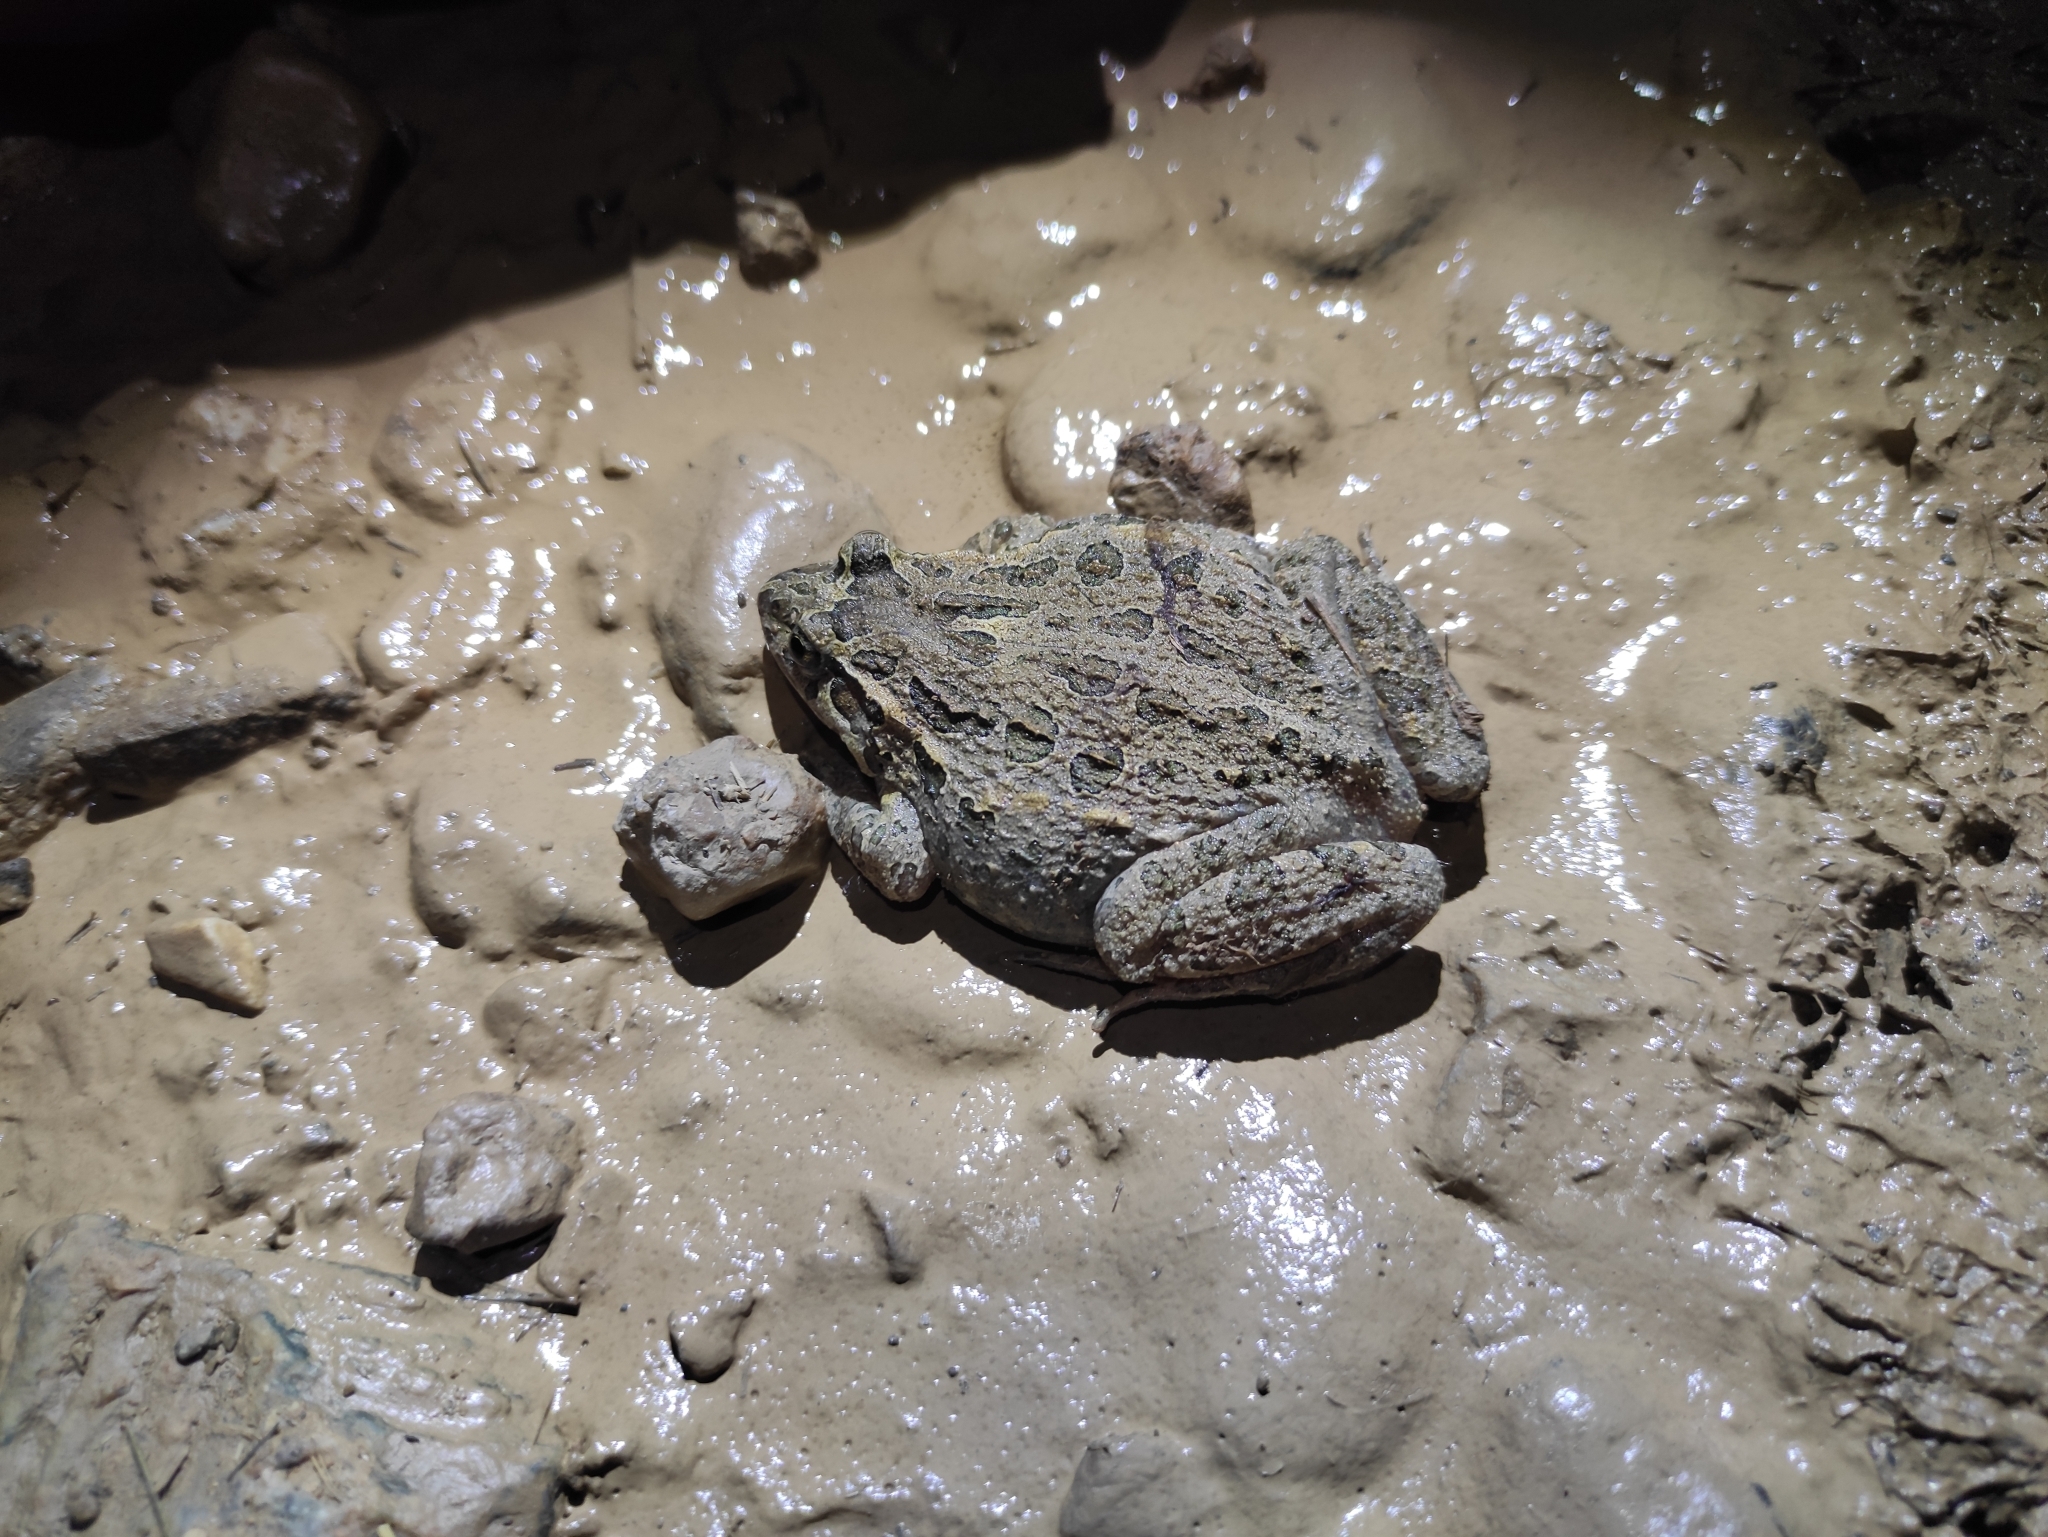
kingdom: Animalia
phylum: Chordata
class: Amphibia
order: Anura
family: Alytidae
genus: Discoglossus
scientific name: Discoglossus pictus
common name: Painted frog
